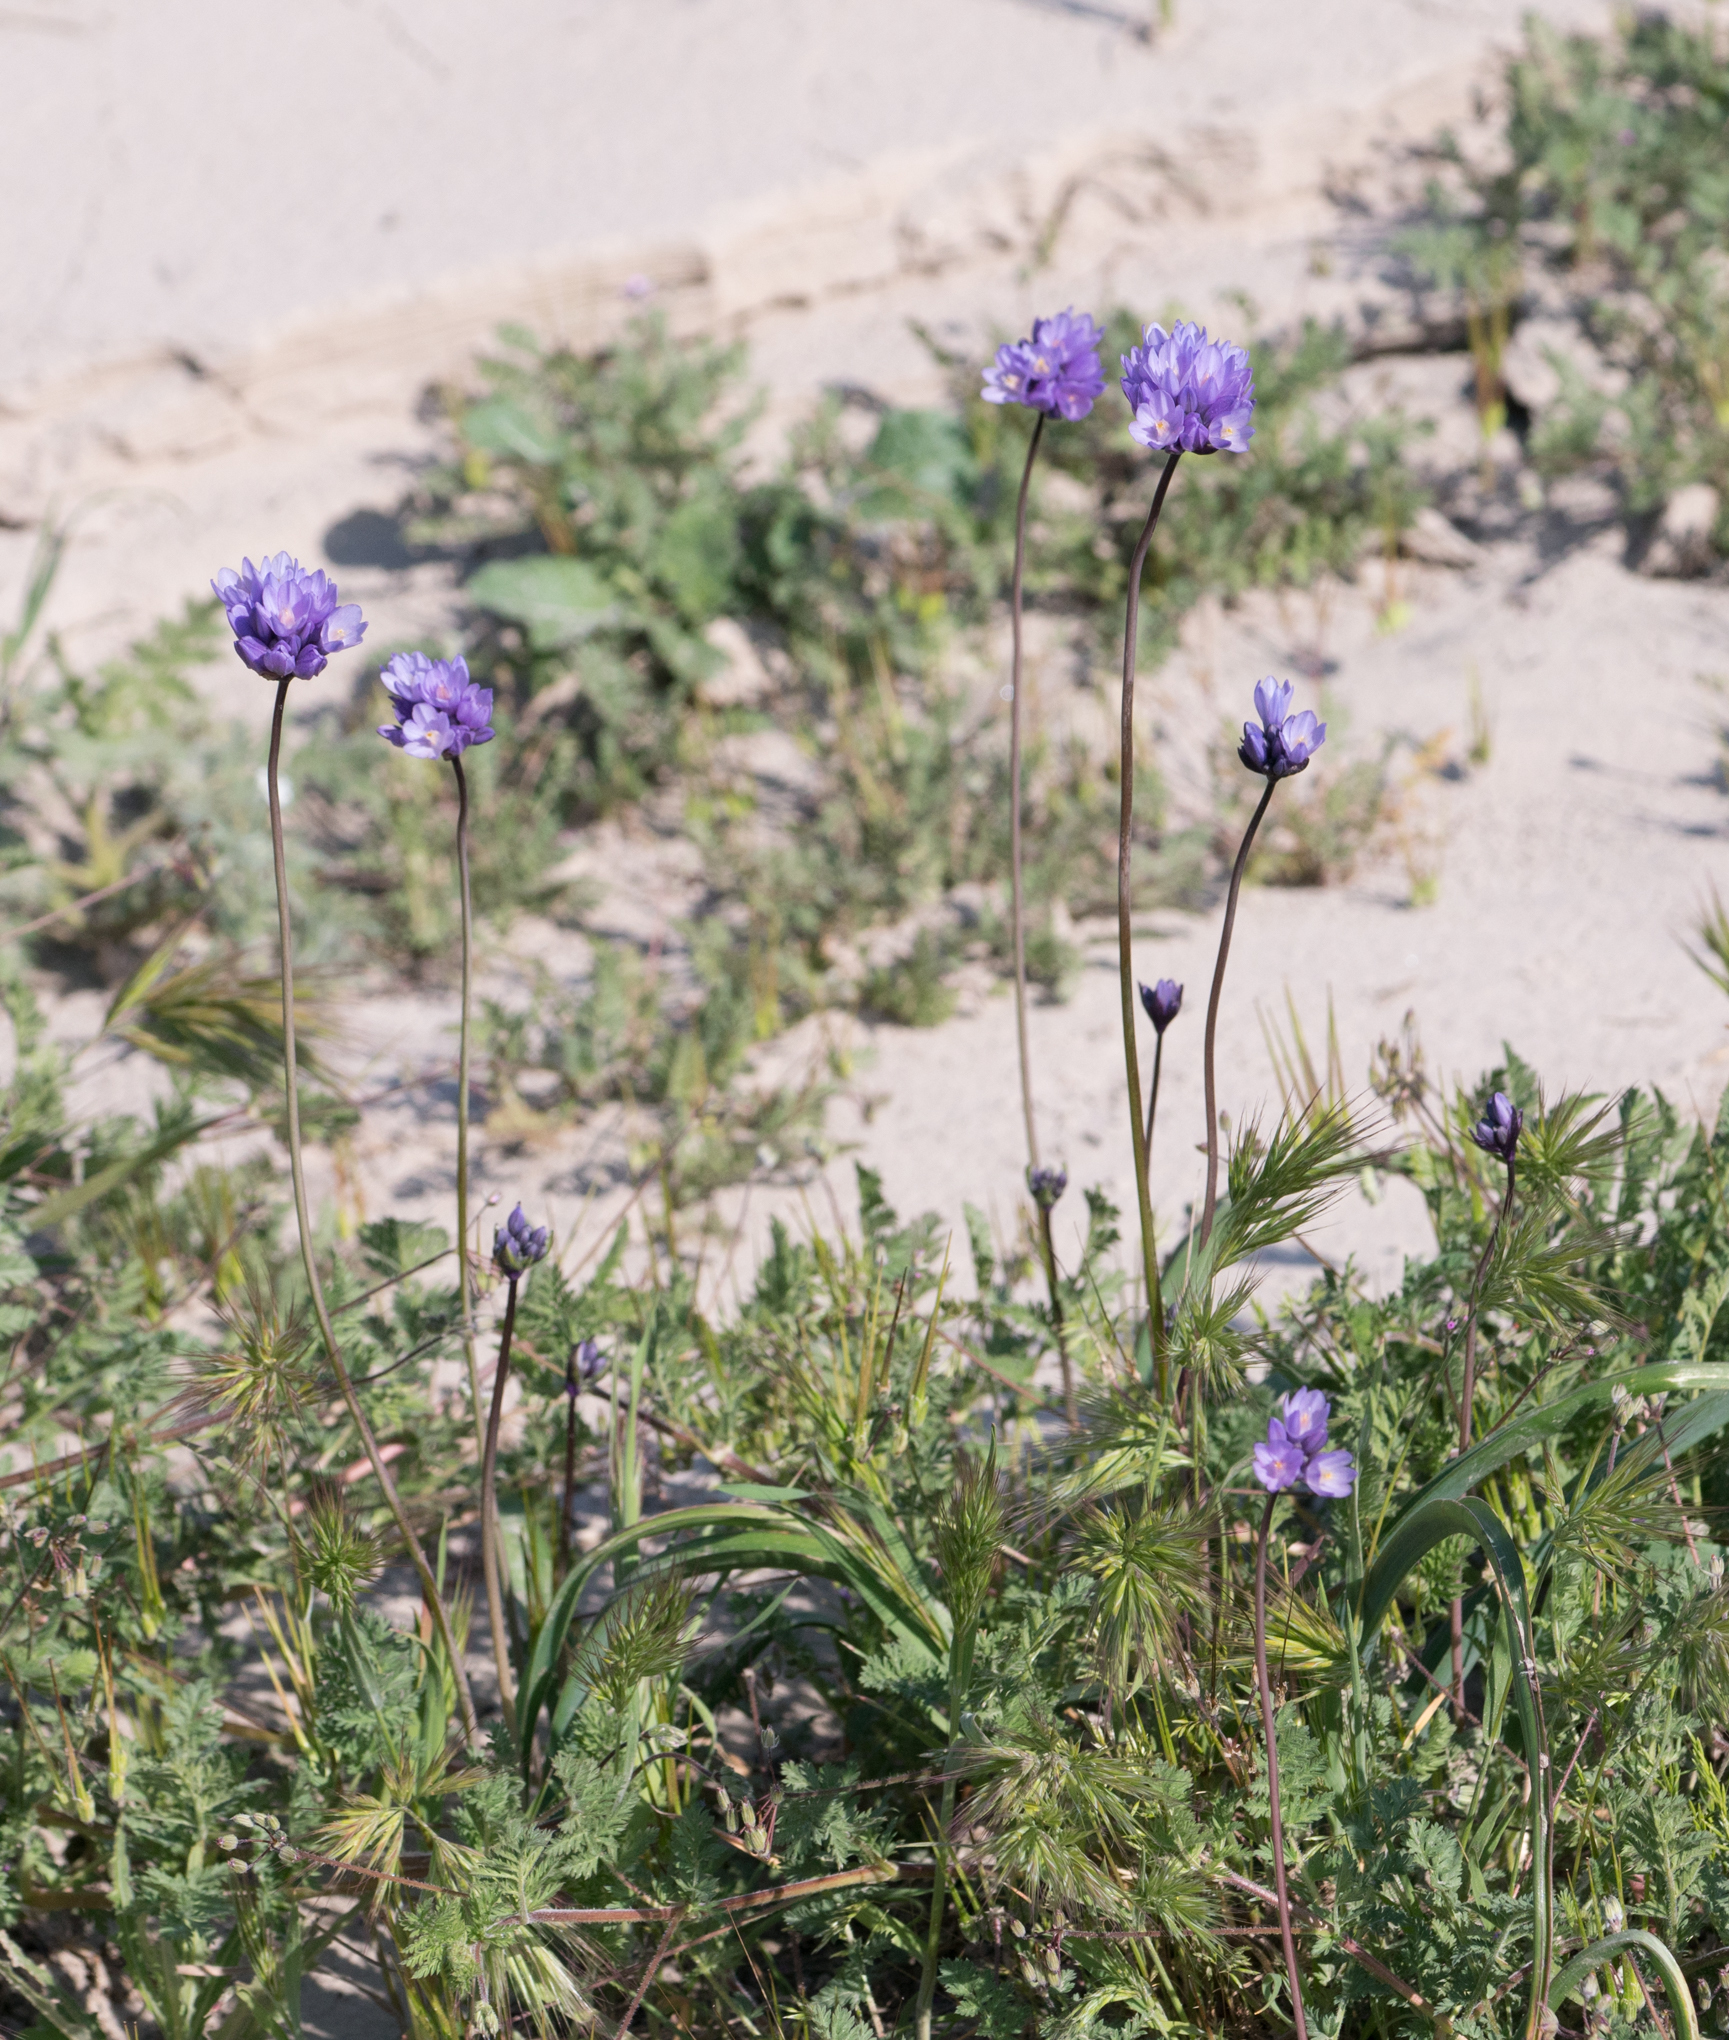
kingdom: Plantae
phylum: Tracheophyta
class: Liliopsida
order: Asparagales
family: Asparagaceae
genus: Dipterostemon
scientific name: Dipterostemon capitatus
